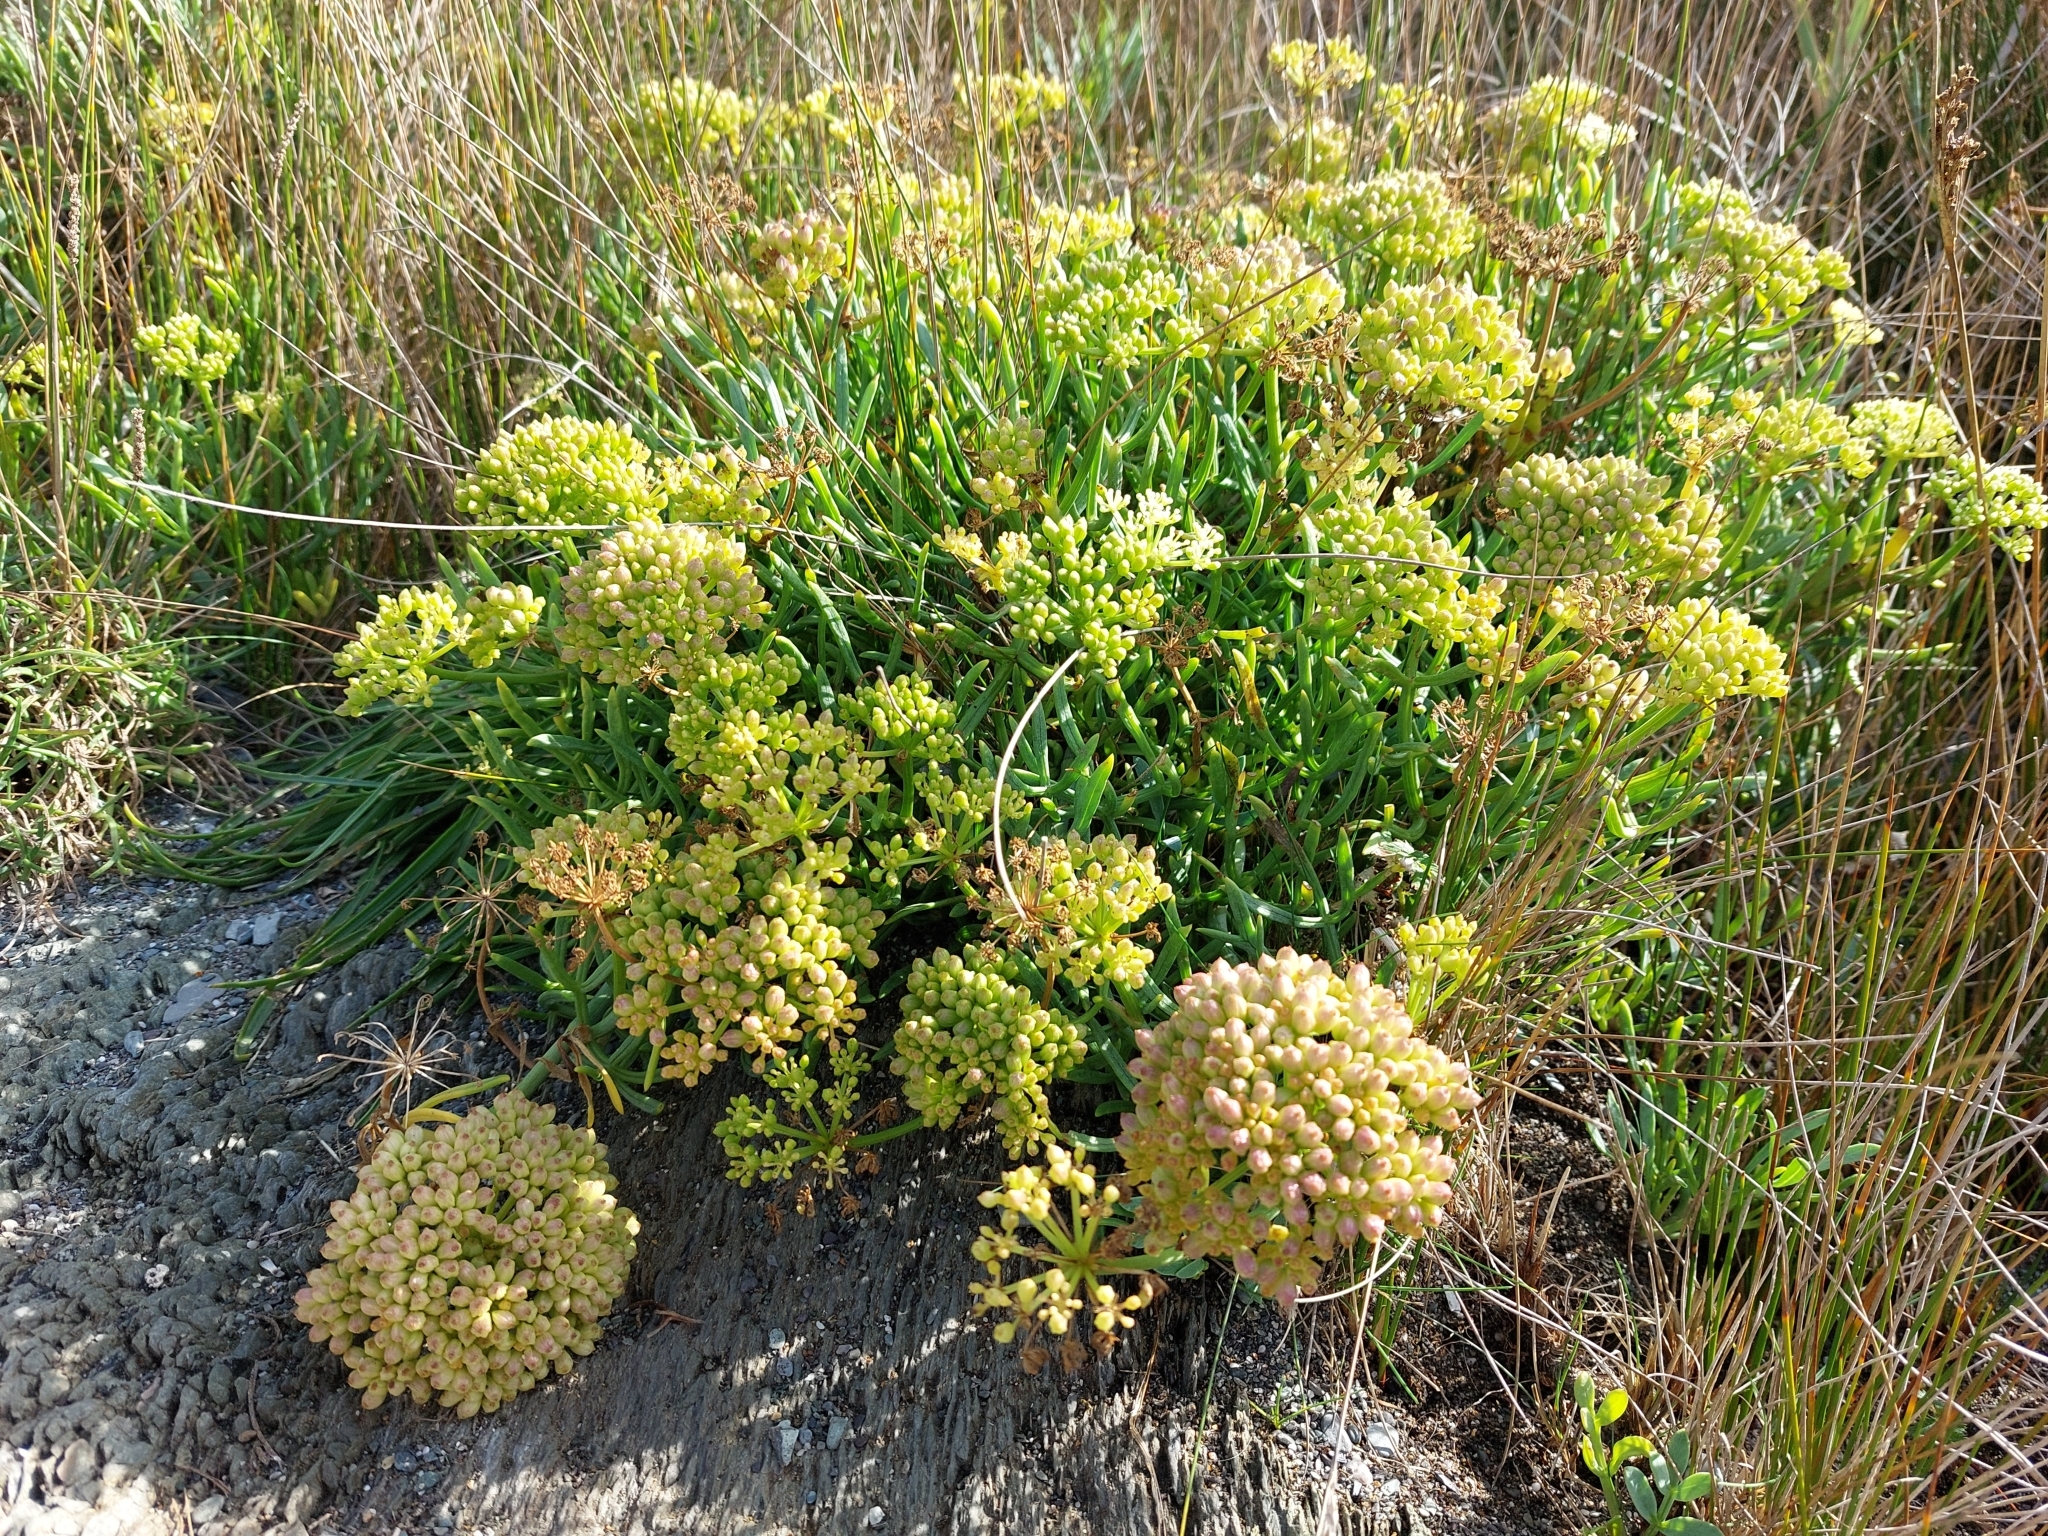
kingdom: Plantae
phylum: Tracheophyta
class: Magnoliopsida
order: Apiales
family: Apiaceae
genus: Crithmum
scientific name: Crithmum maritimum
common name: Rock samphire
